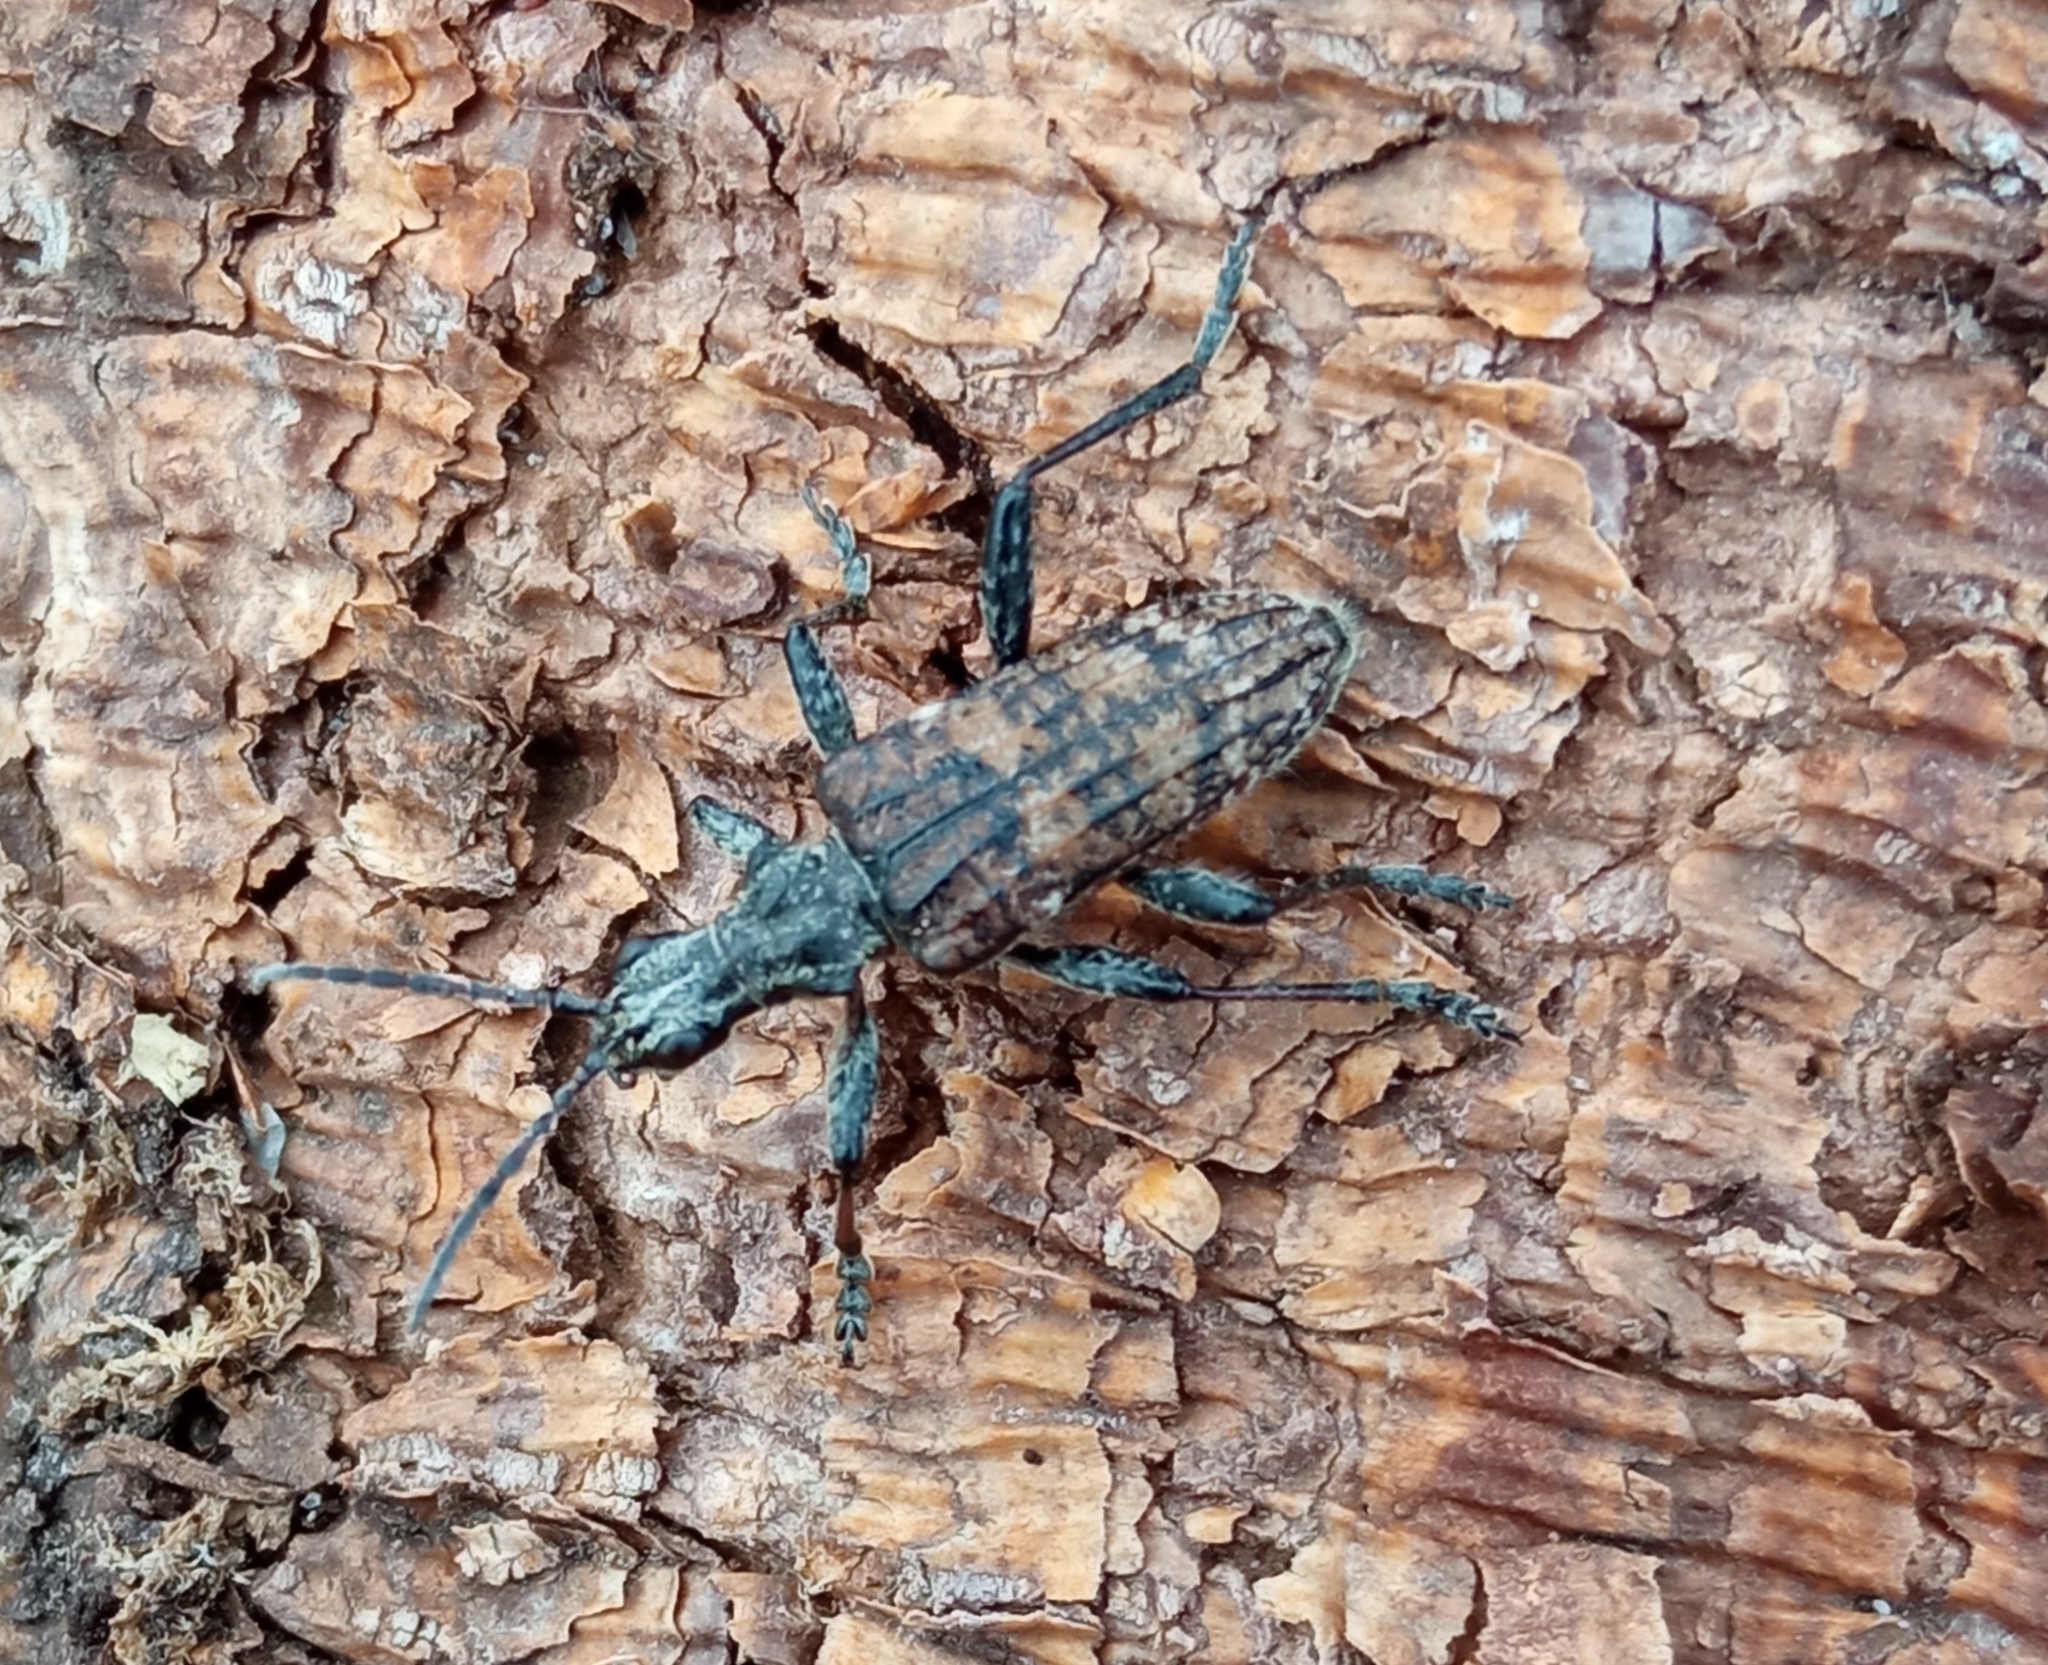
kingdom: Animalia
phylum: Arthropoda
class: Insecta
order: Coleoptera
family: Cerambycidae
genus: Rhagium
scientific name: Rhagium inquisitor
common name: Ribbed pine borer
